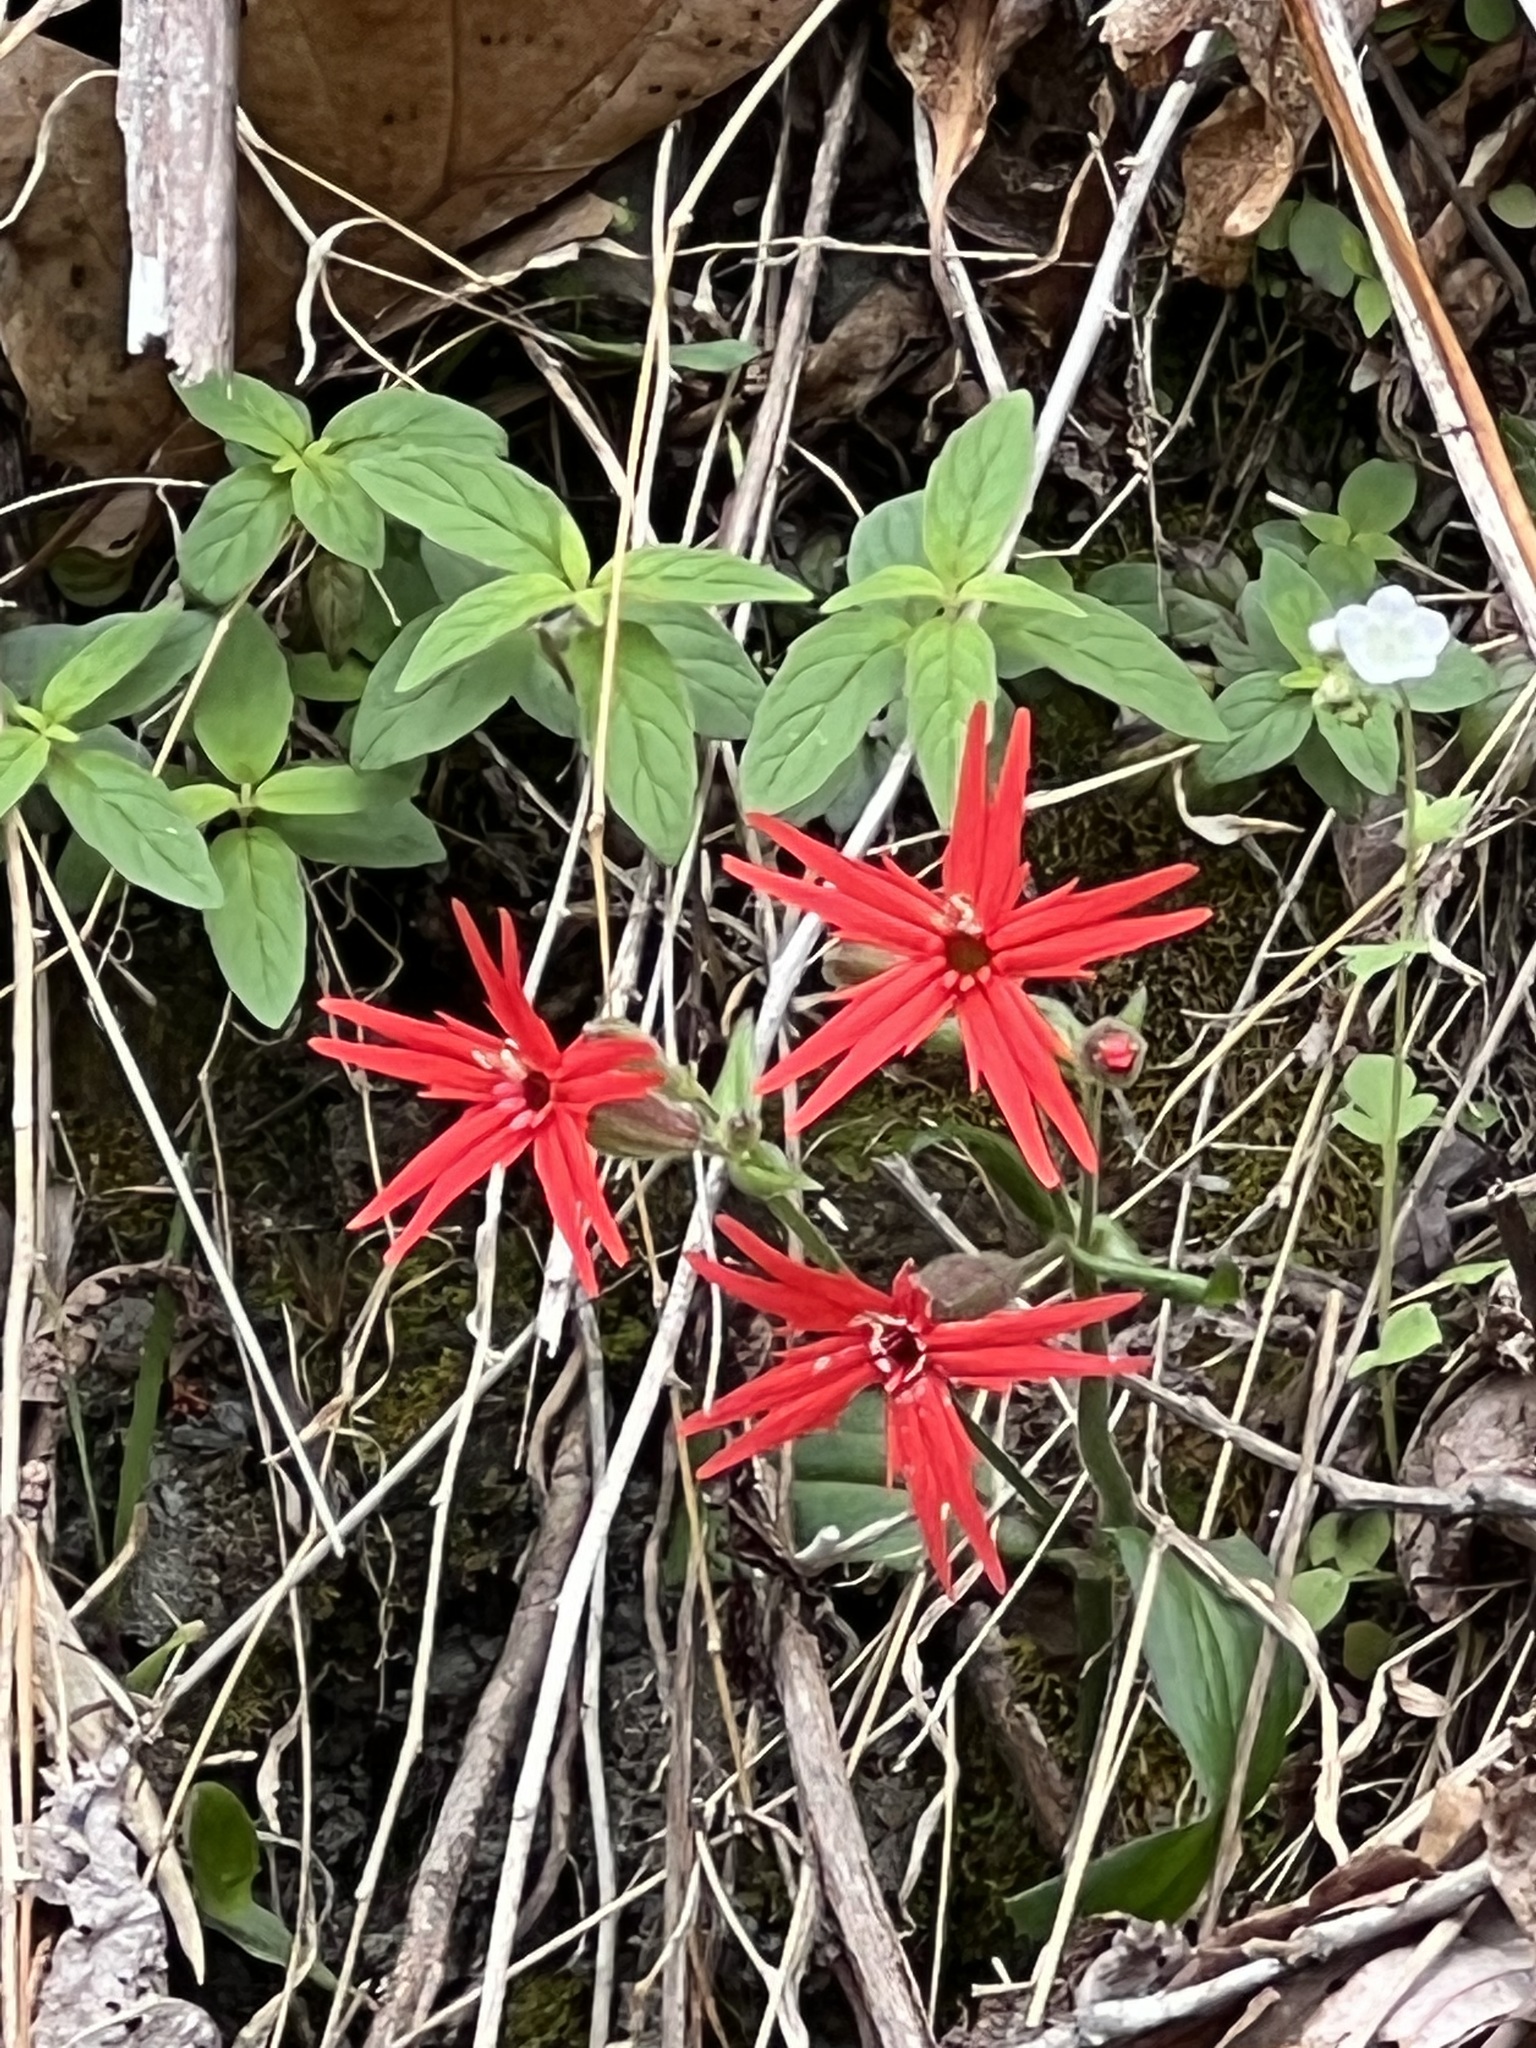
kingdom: Plantae
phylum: Tracheophyta
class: Magnoliopsida
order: Caryophyllales
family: Caryophyllaceae
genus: Silene
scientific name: Silene virginica
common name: Fire-pink
